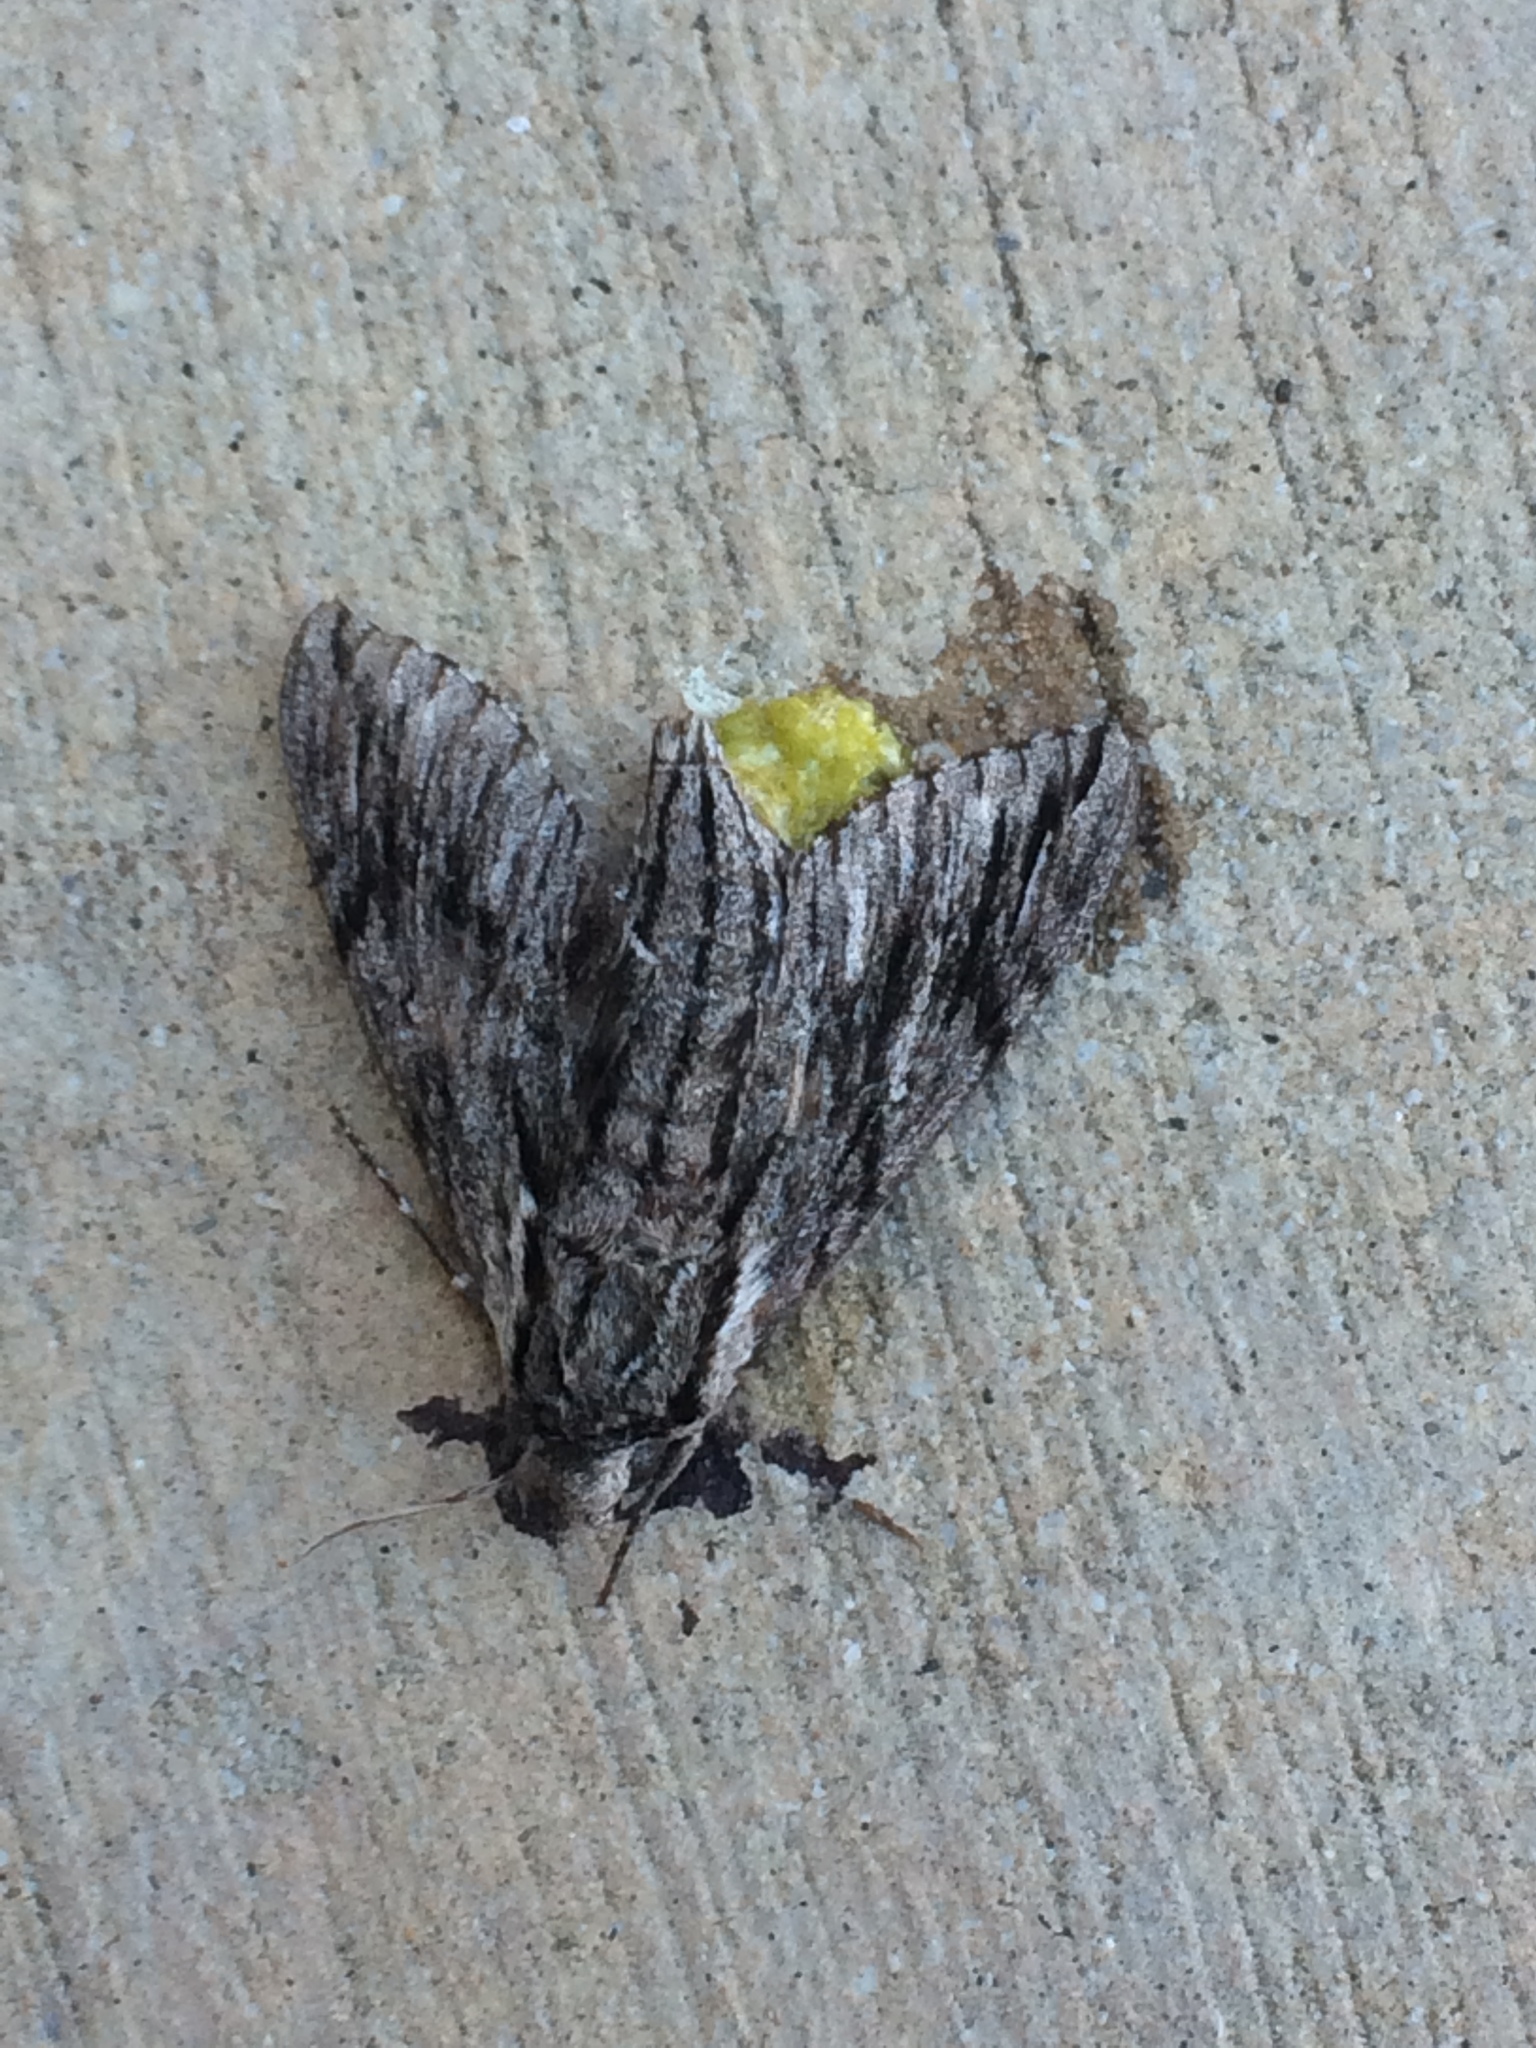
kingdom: Animalia
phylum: Arthropoda
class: Insecta
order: Lepidoptera
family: Sphingidae
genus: Paratrea
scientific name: Paratrea plebeja
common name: Plebian sphinx
